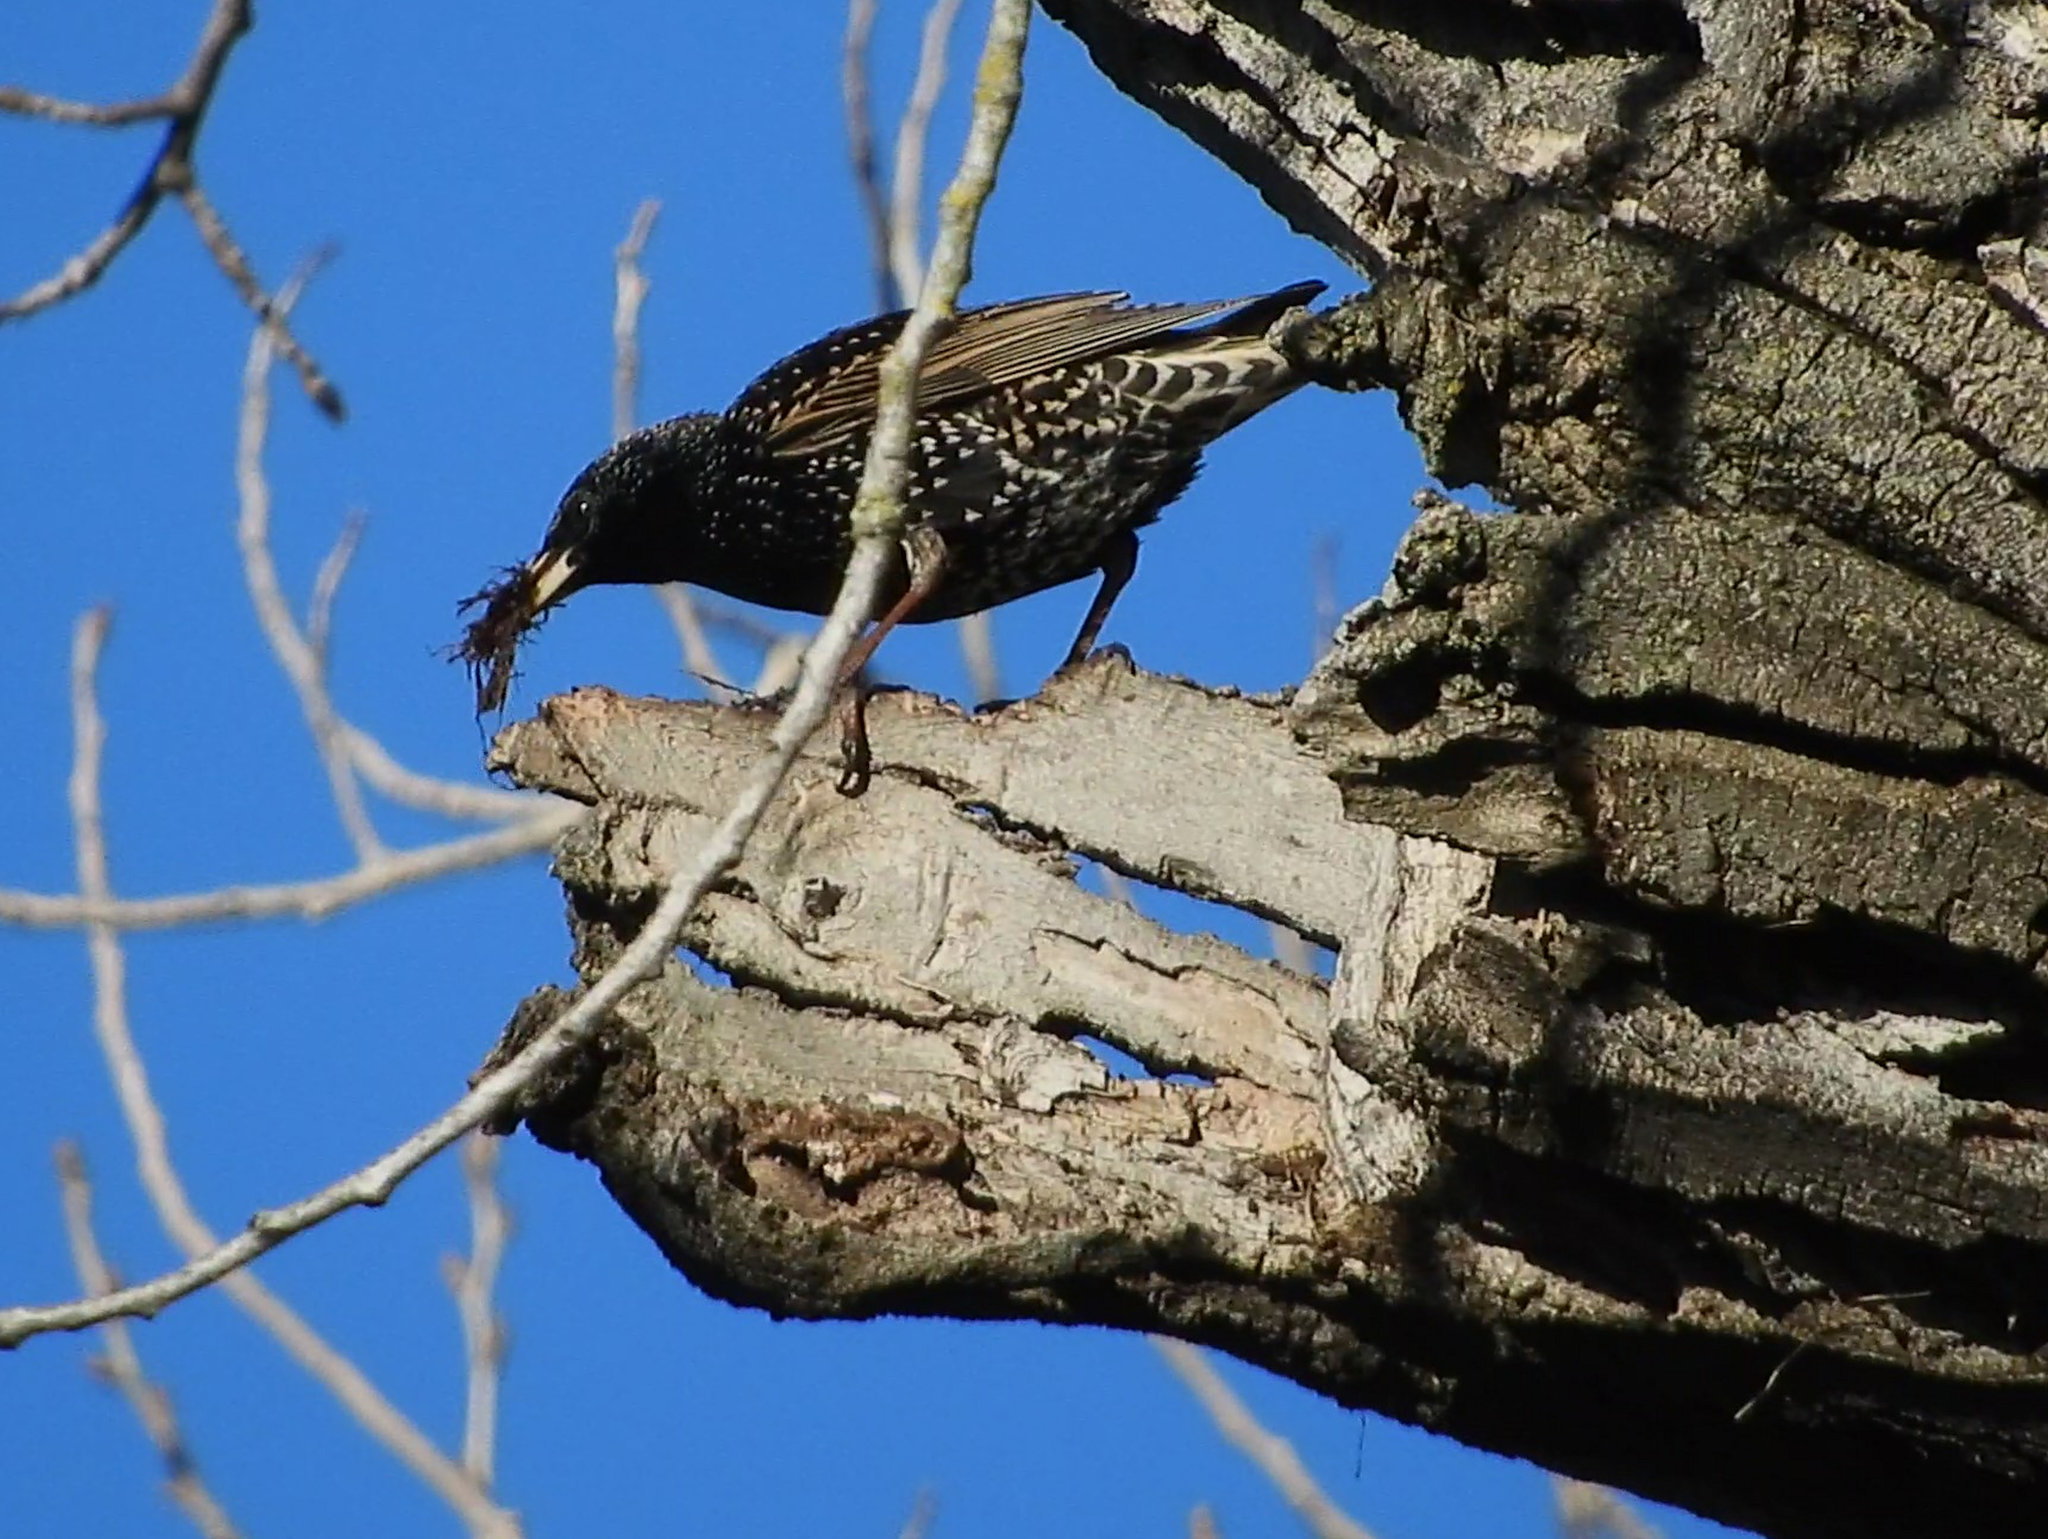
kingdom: Animalia
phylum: Chordata
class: Aves
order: Passeriformes
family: Sturnidae
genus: Sturnus
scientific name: Sturnus vulgaris
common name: Common starling
